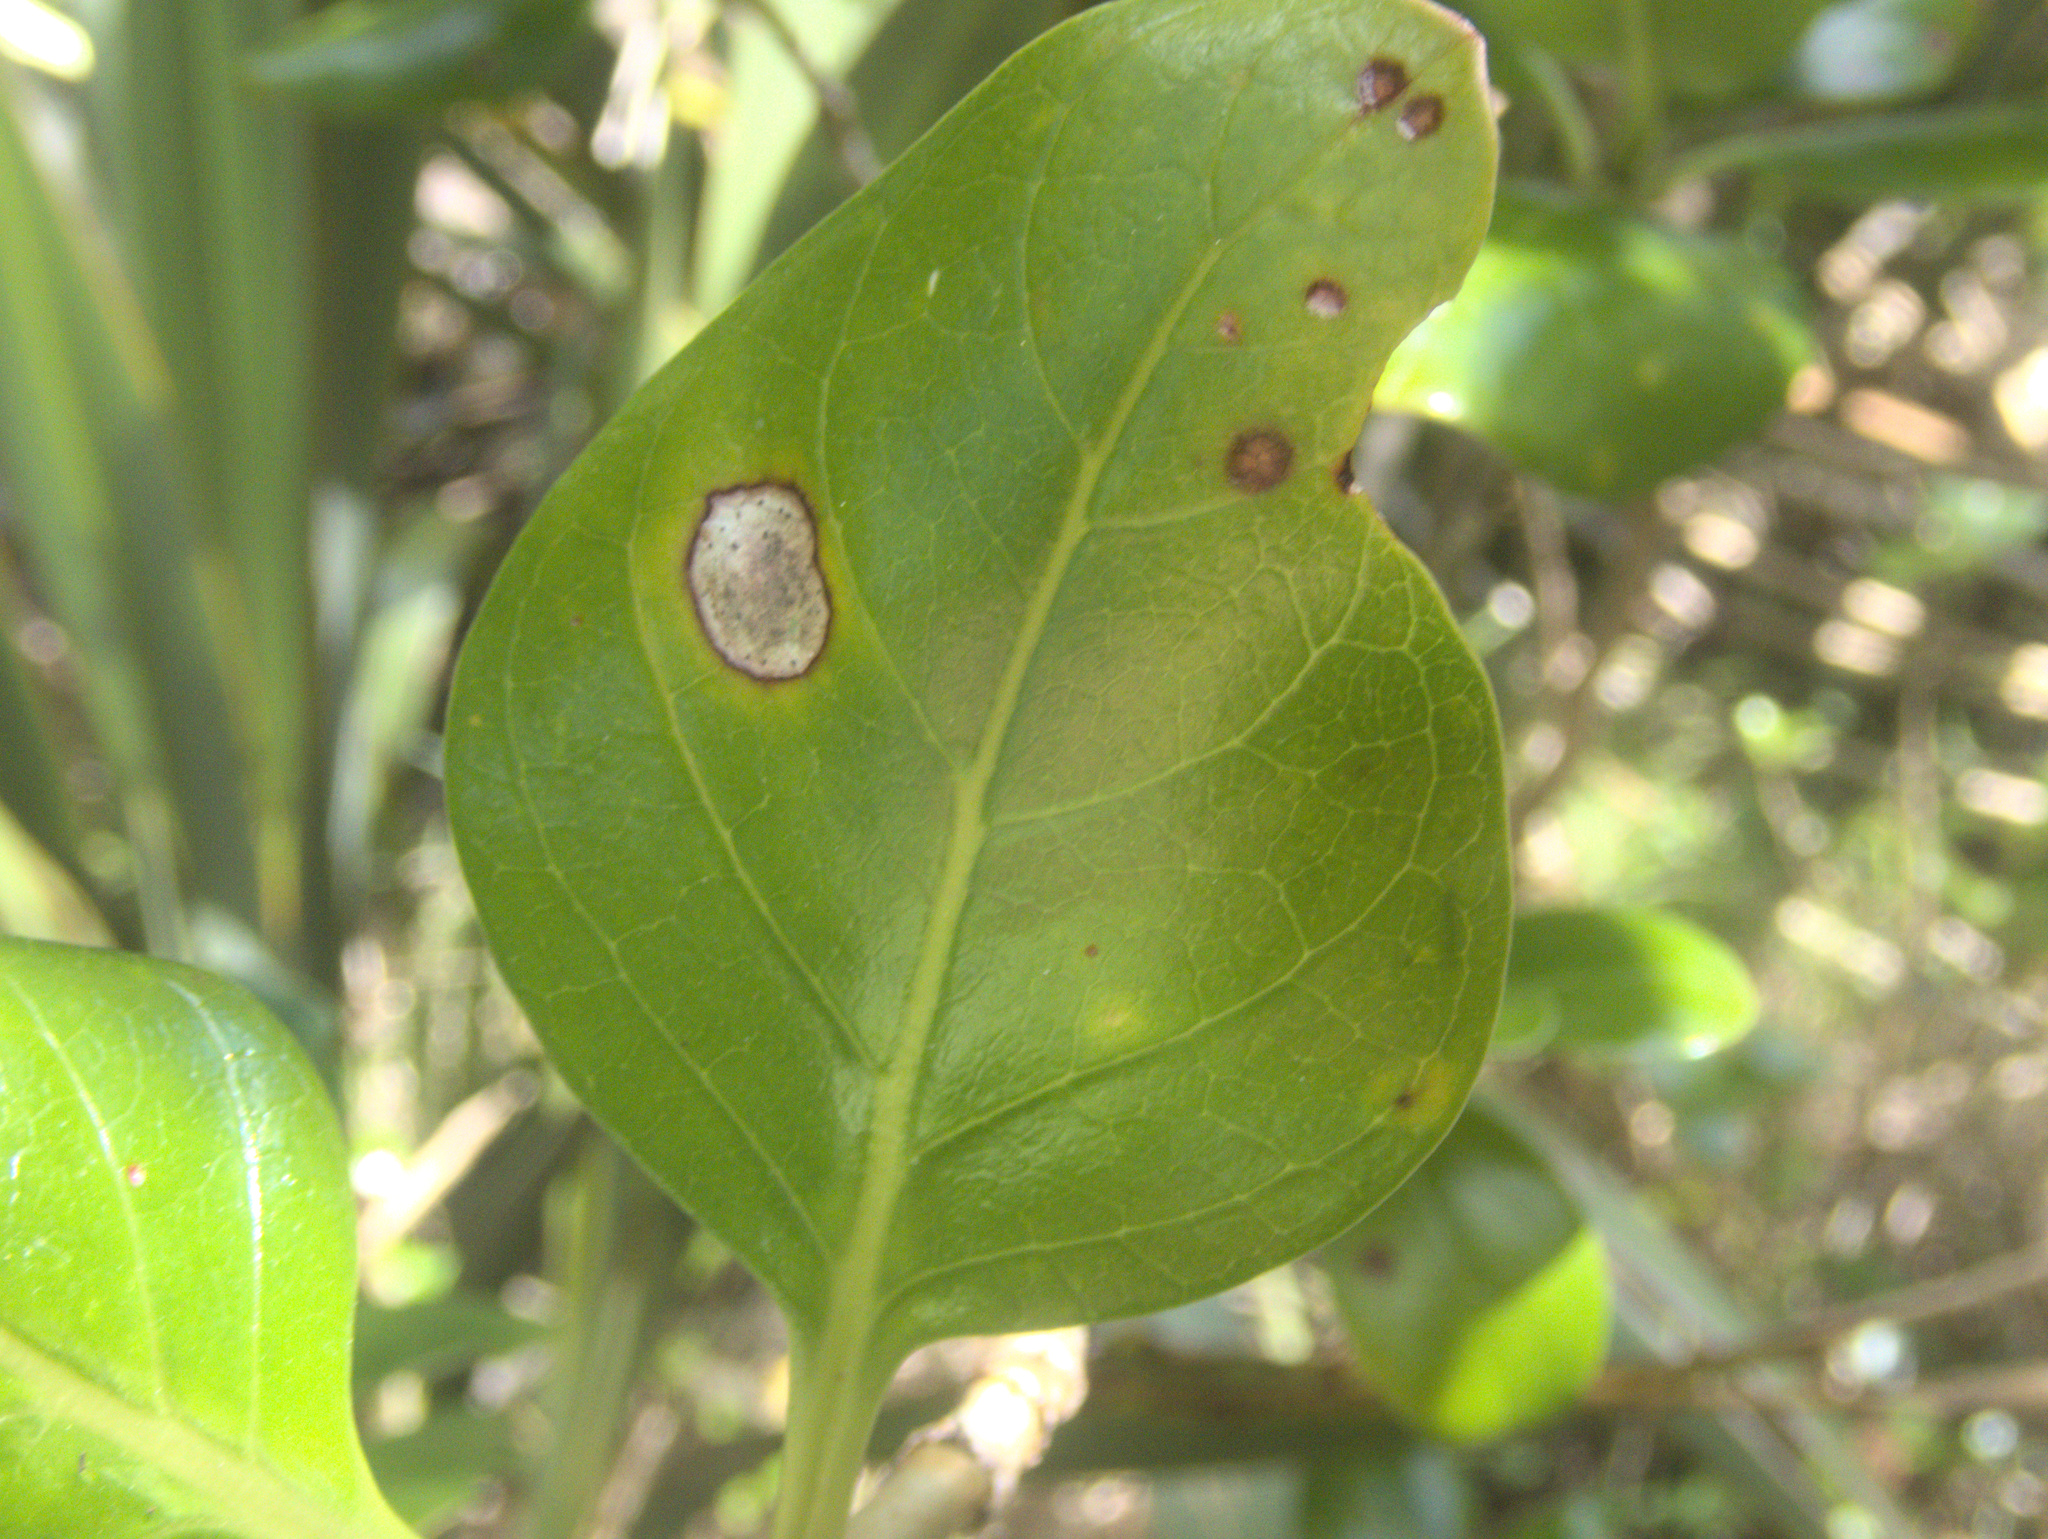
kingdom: Plantae
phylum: Tracheophyta
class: Magnoliopsida
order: Gentianales
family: Rubiaceae
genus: Coprosma
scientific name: Coprosma repens
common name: Tree bedstraw
